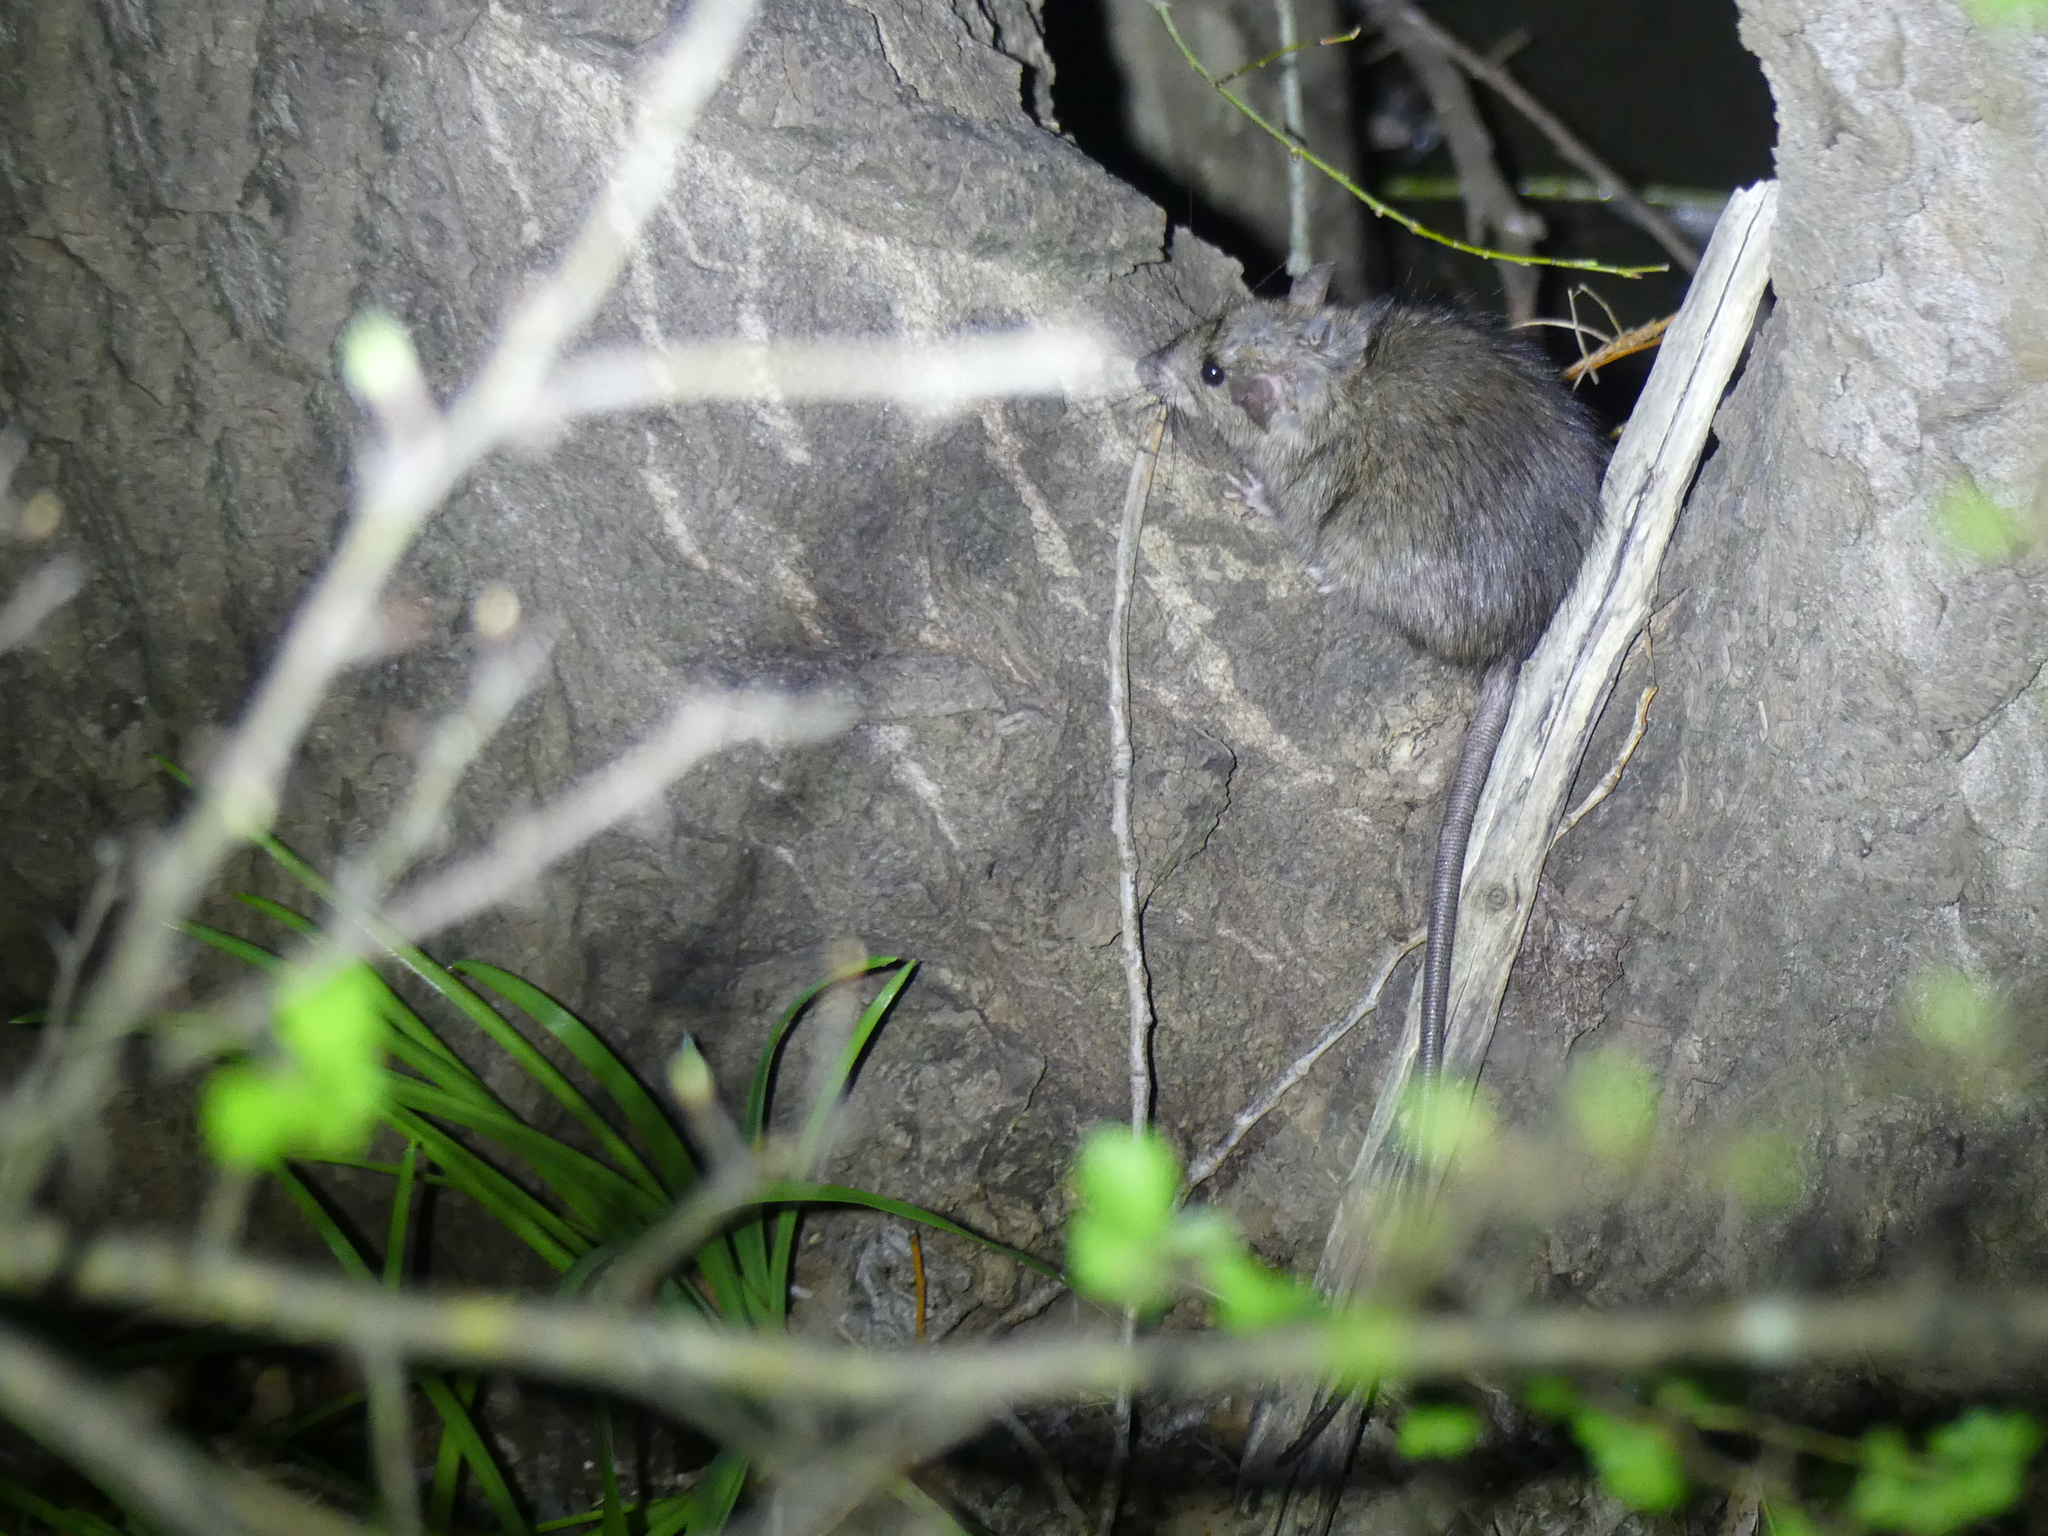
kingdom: Animalia
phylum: Chordata
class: Mammalia
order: Rodentia
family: Muridae
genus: Rattus
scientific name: Rattus rattus
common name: Black rat
